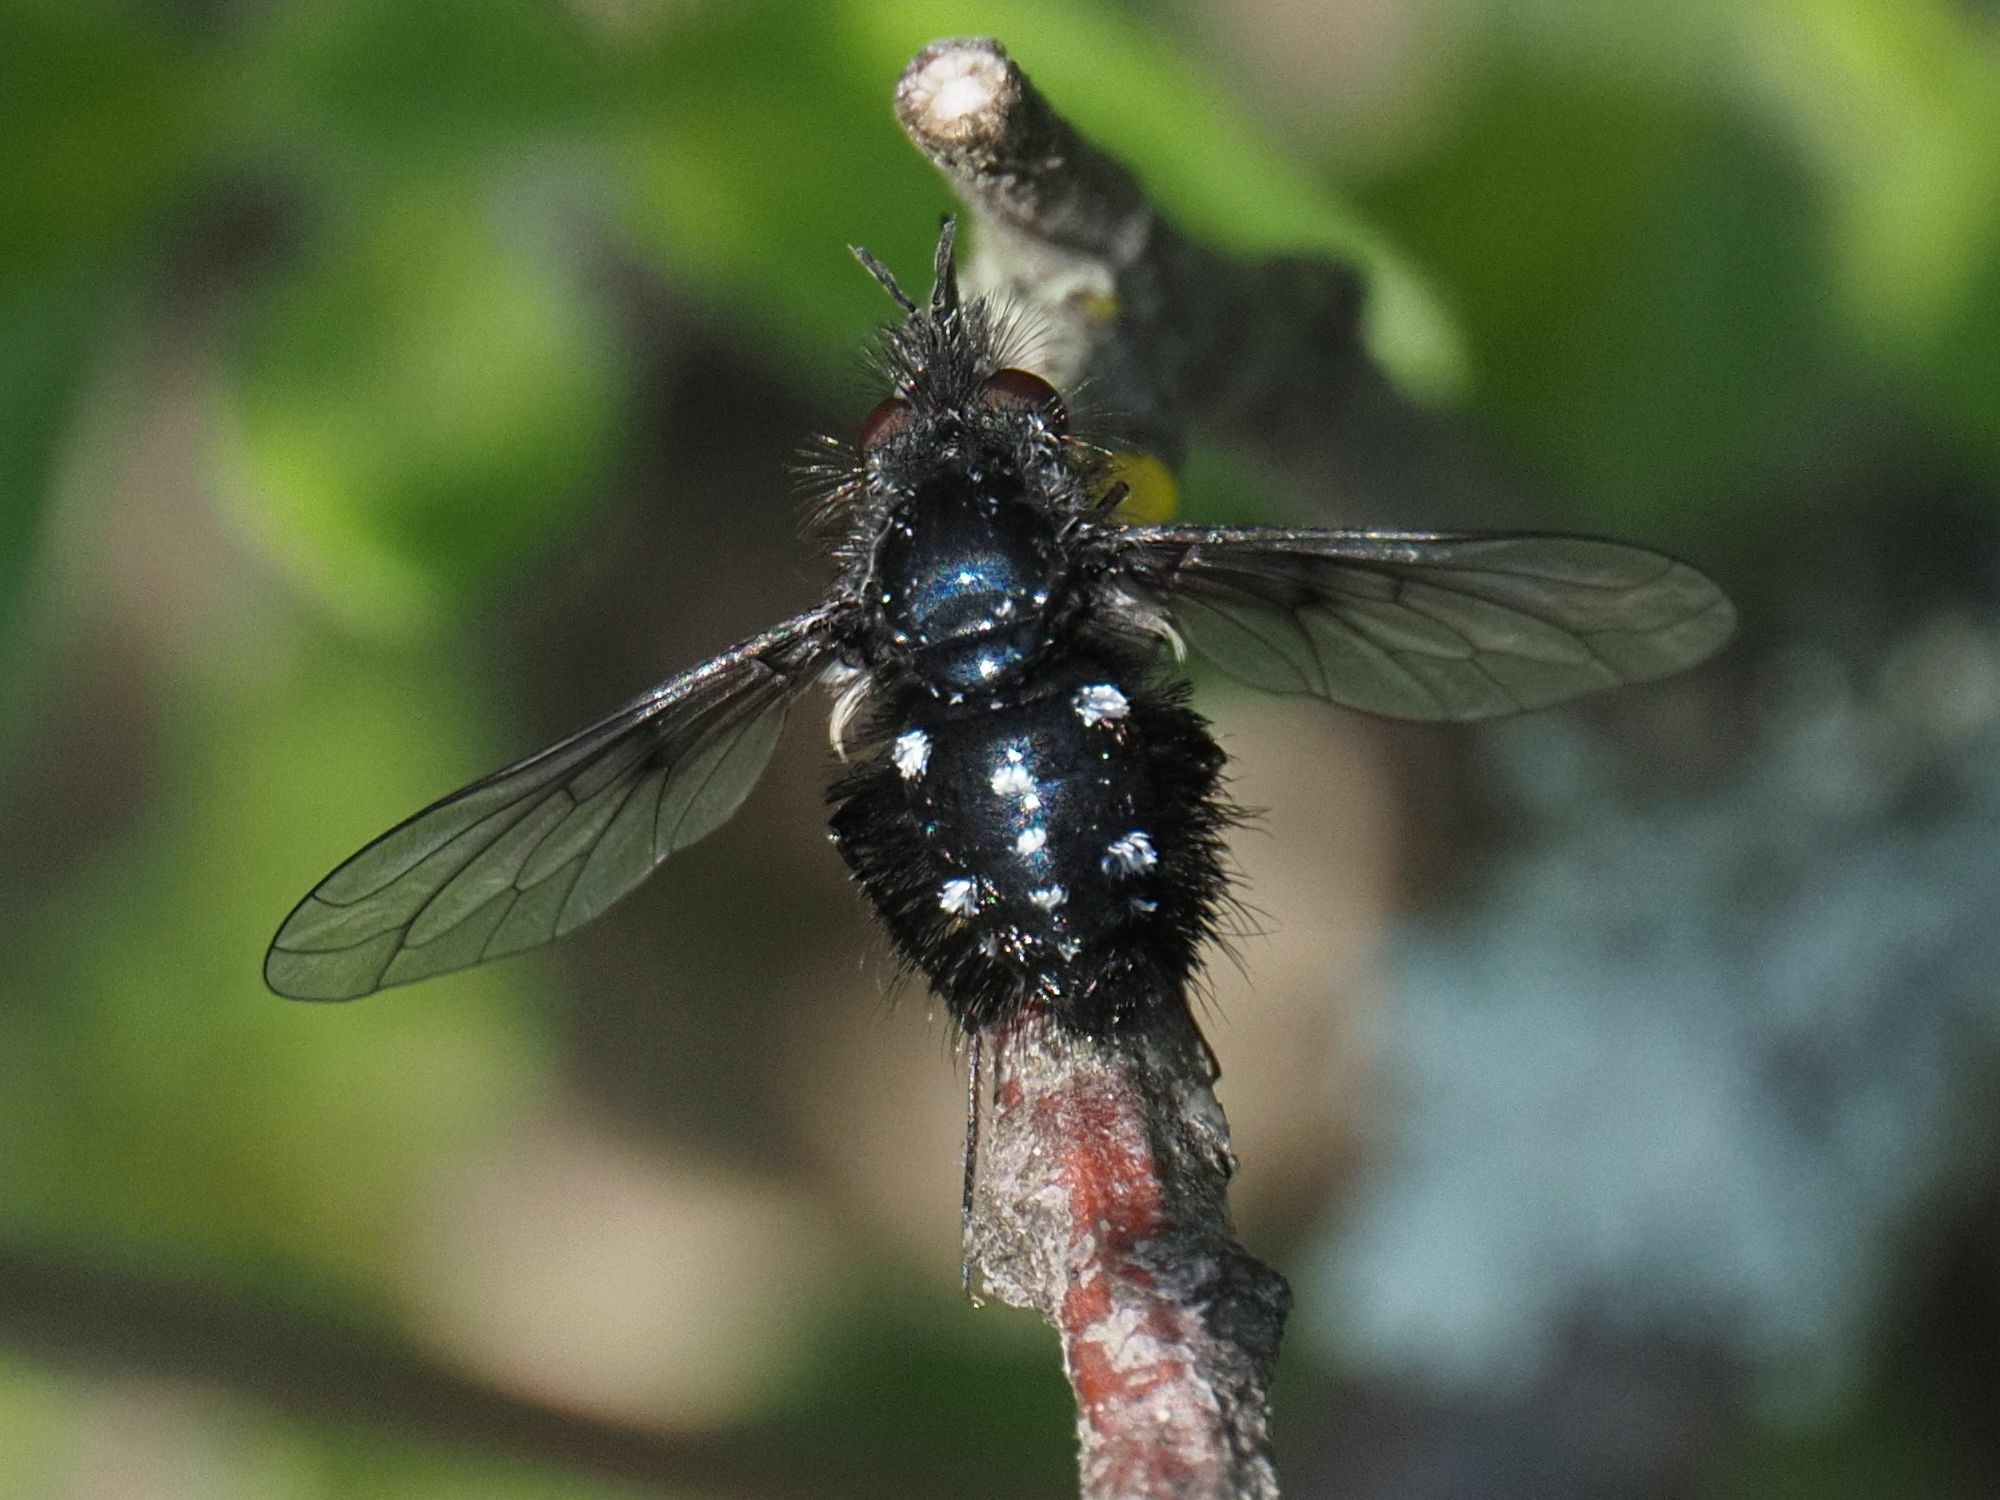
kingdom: Animalia
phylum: Arthropoda
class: Insecta
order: Diptera
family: Bombyliidae
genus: Bombylella
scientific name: Bombylella atra
